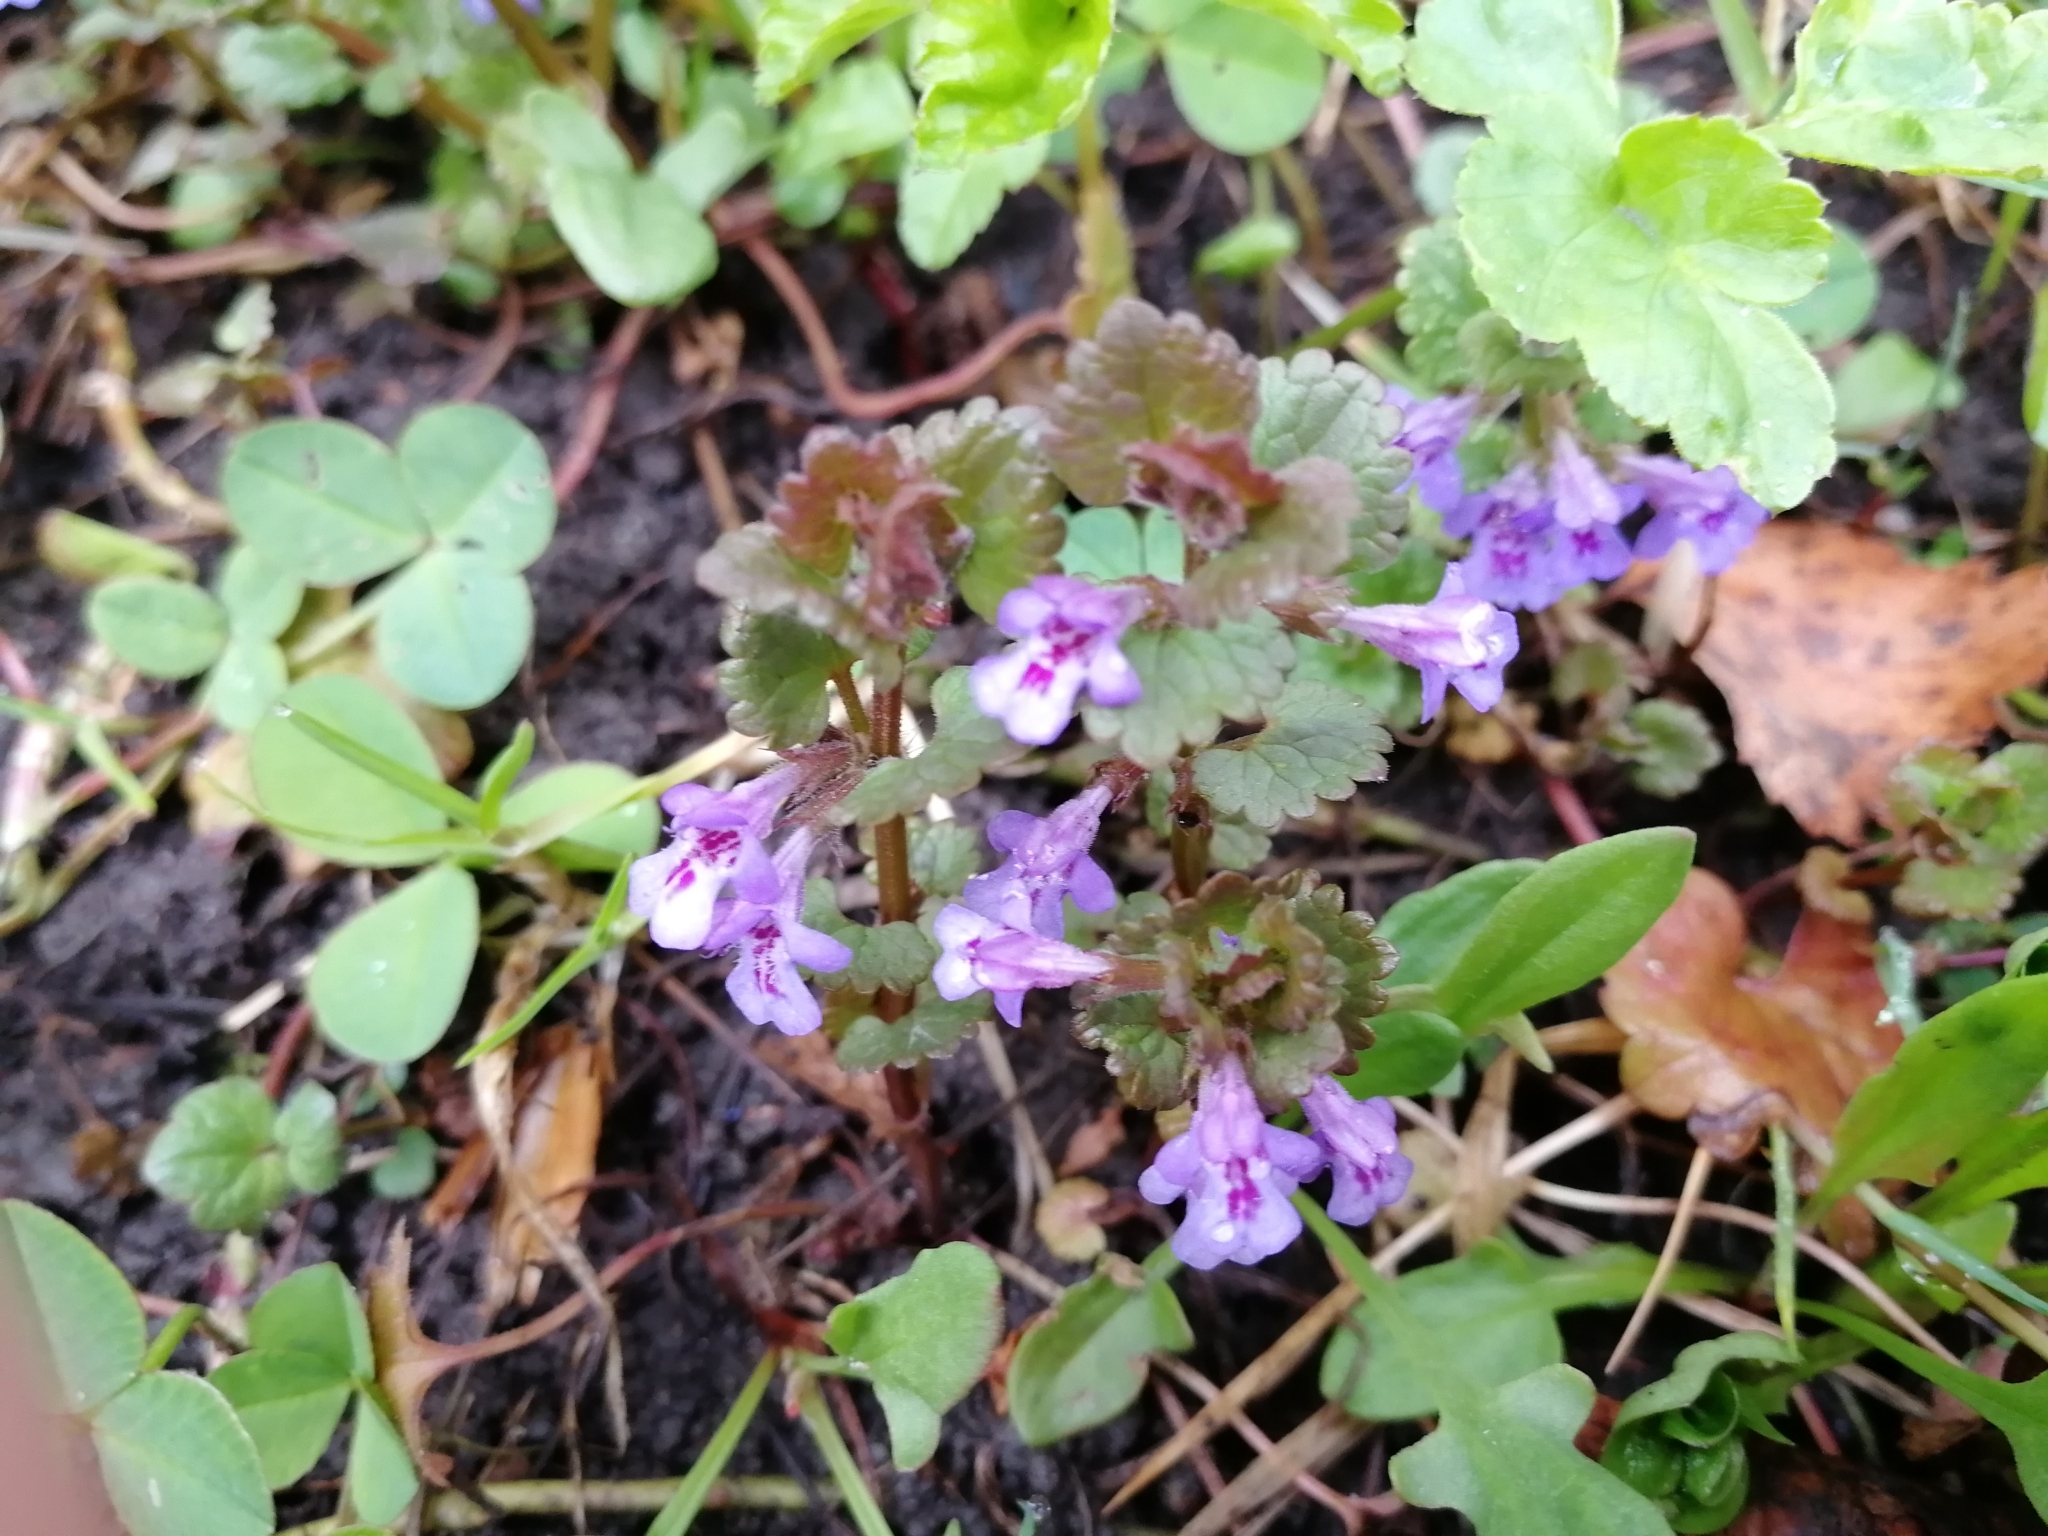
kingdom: Plantae
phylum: Tracheophyta
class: Magnoliopsida
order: Lamiales
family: Lamiaceae
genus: Glechoma
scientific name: Glechoma hederacea
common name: Ground ivy
